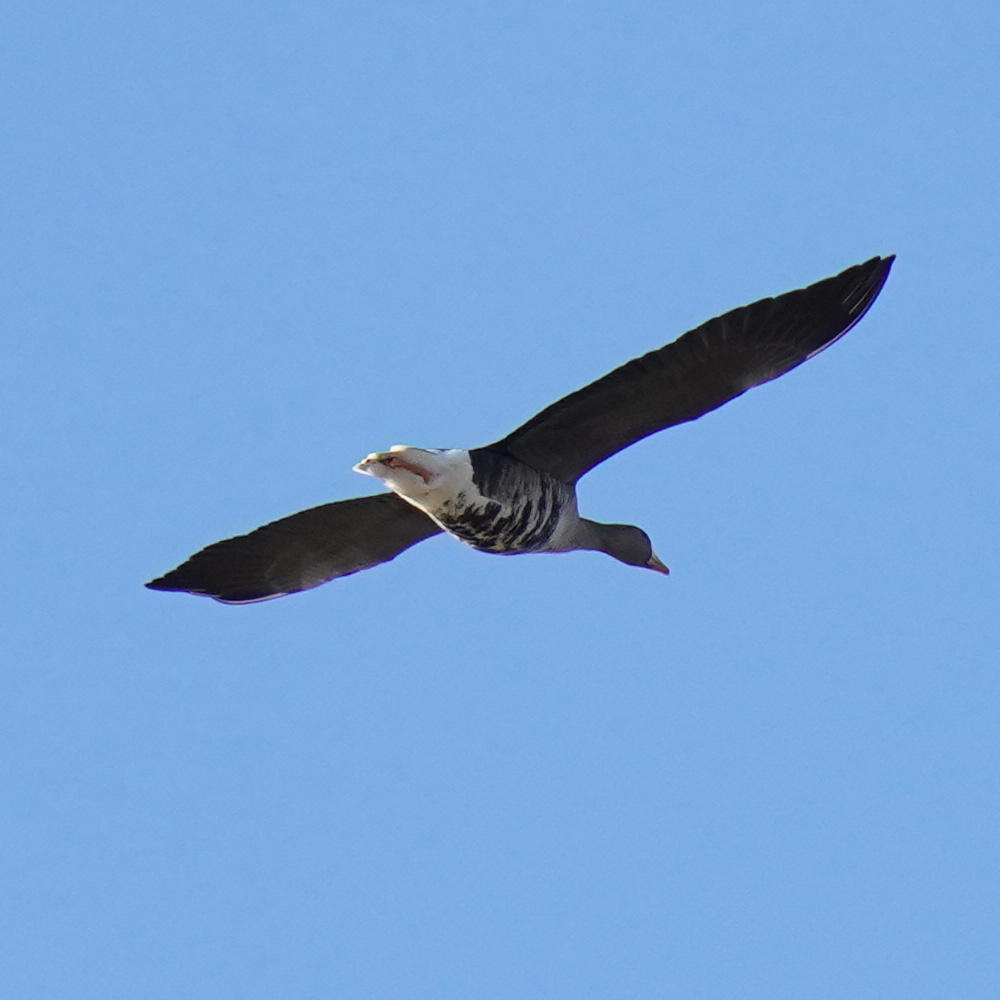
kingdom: Animalia
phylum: Chordata
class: Aves
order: Anseriformes
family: Anatidae
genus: Anser
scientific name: Anser albifrons
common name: Greater white-fronted goose
